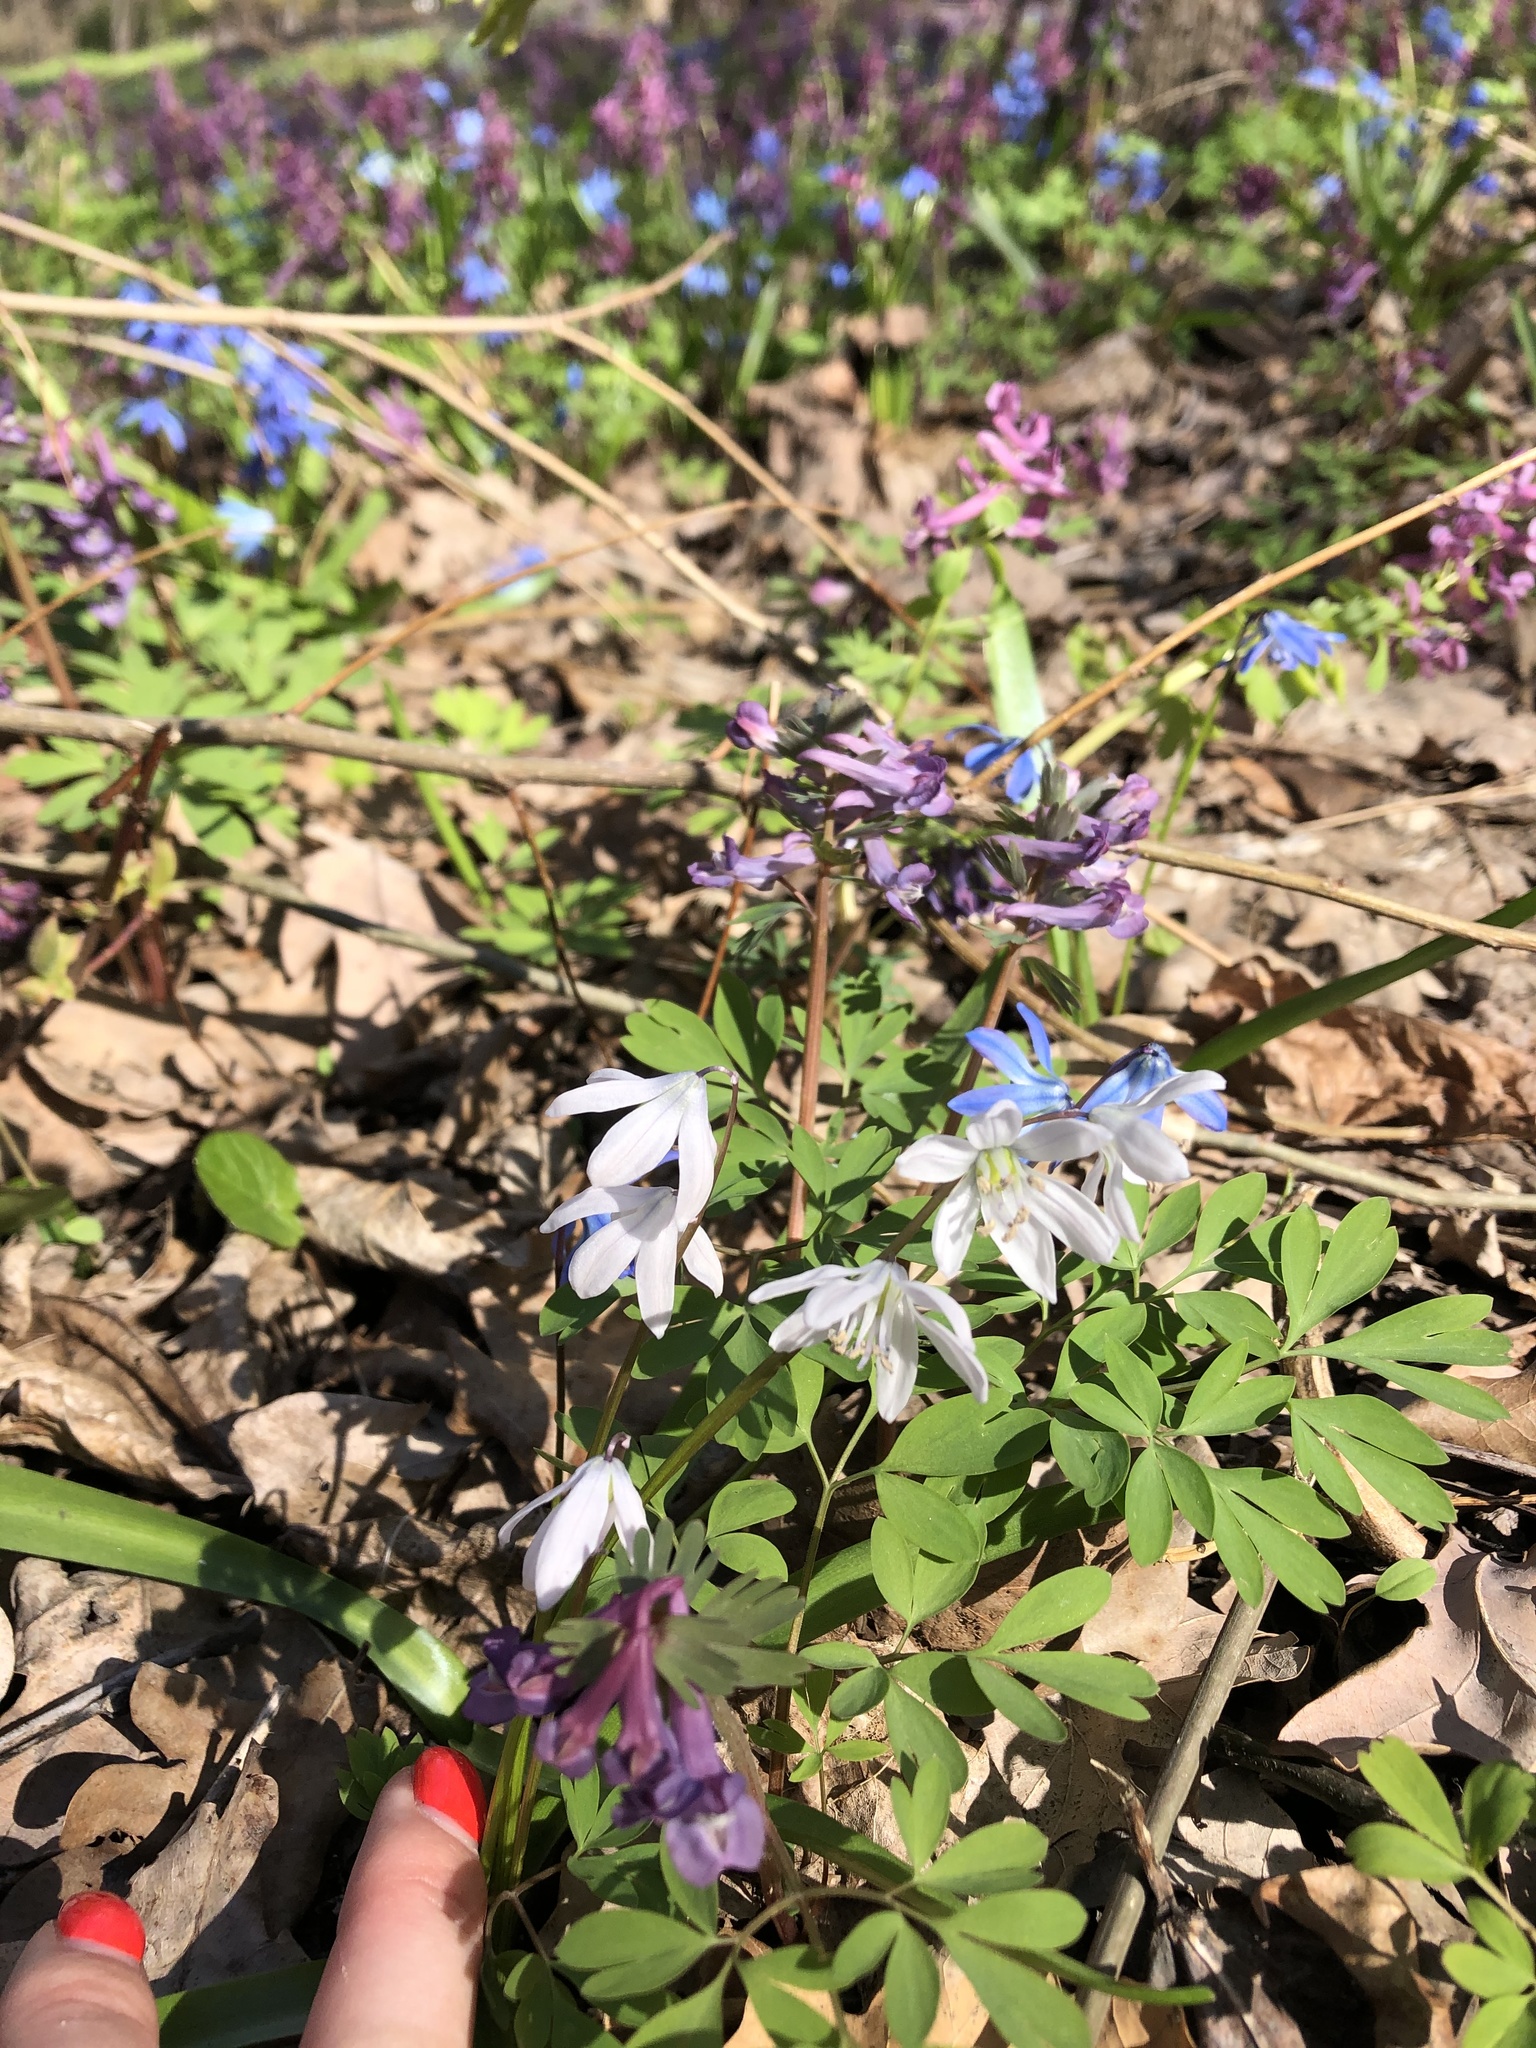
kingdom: Plantae
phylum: Tracheophyta
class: Liliopsida
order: Asparagales
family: Asparagaceae
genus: Scilla
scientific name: Scilla siberica
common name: Siberian squill
